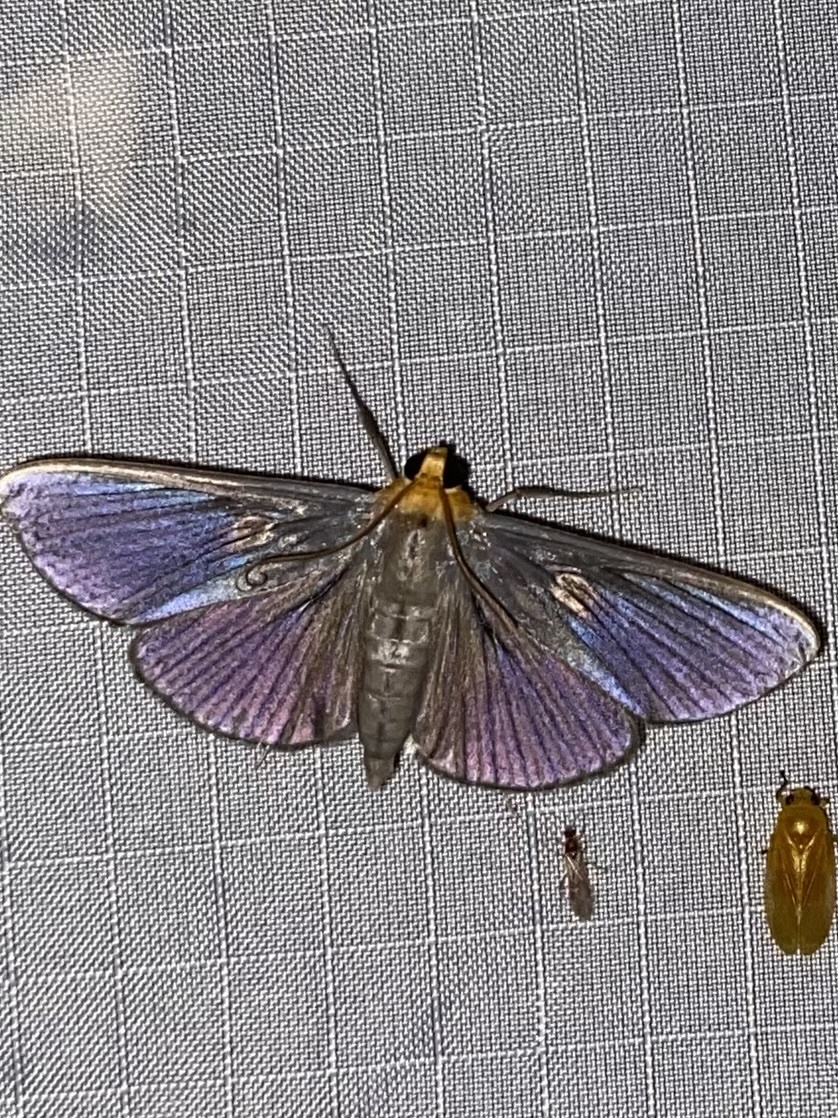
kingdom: Animalia
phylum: Arthropoda
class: Insecta
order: Lepidoptera
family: Crambidae
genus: Phostria
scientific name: Phostria
